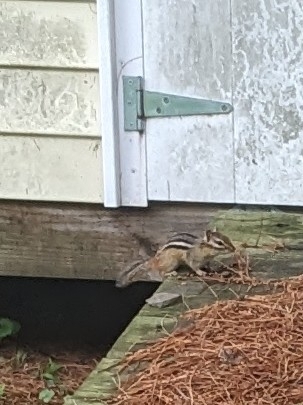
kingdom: Animalia
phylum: Chordata
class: Mammalia
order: Rodentia
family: Sciuridae
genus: Tamias
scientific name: Tamias striatus
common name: Eastern chipmunk
